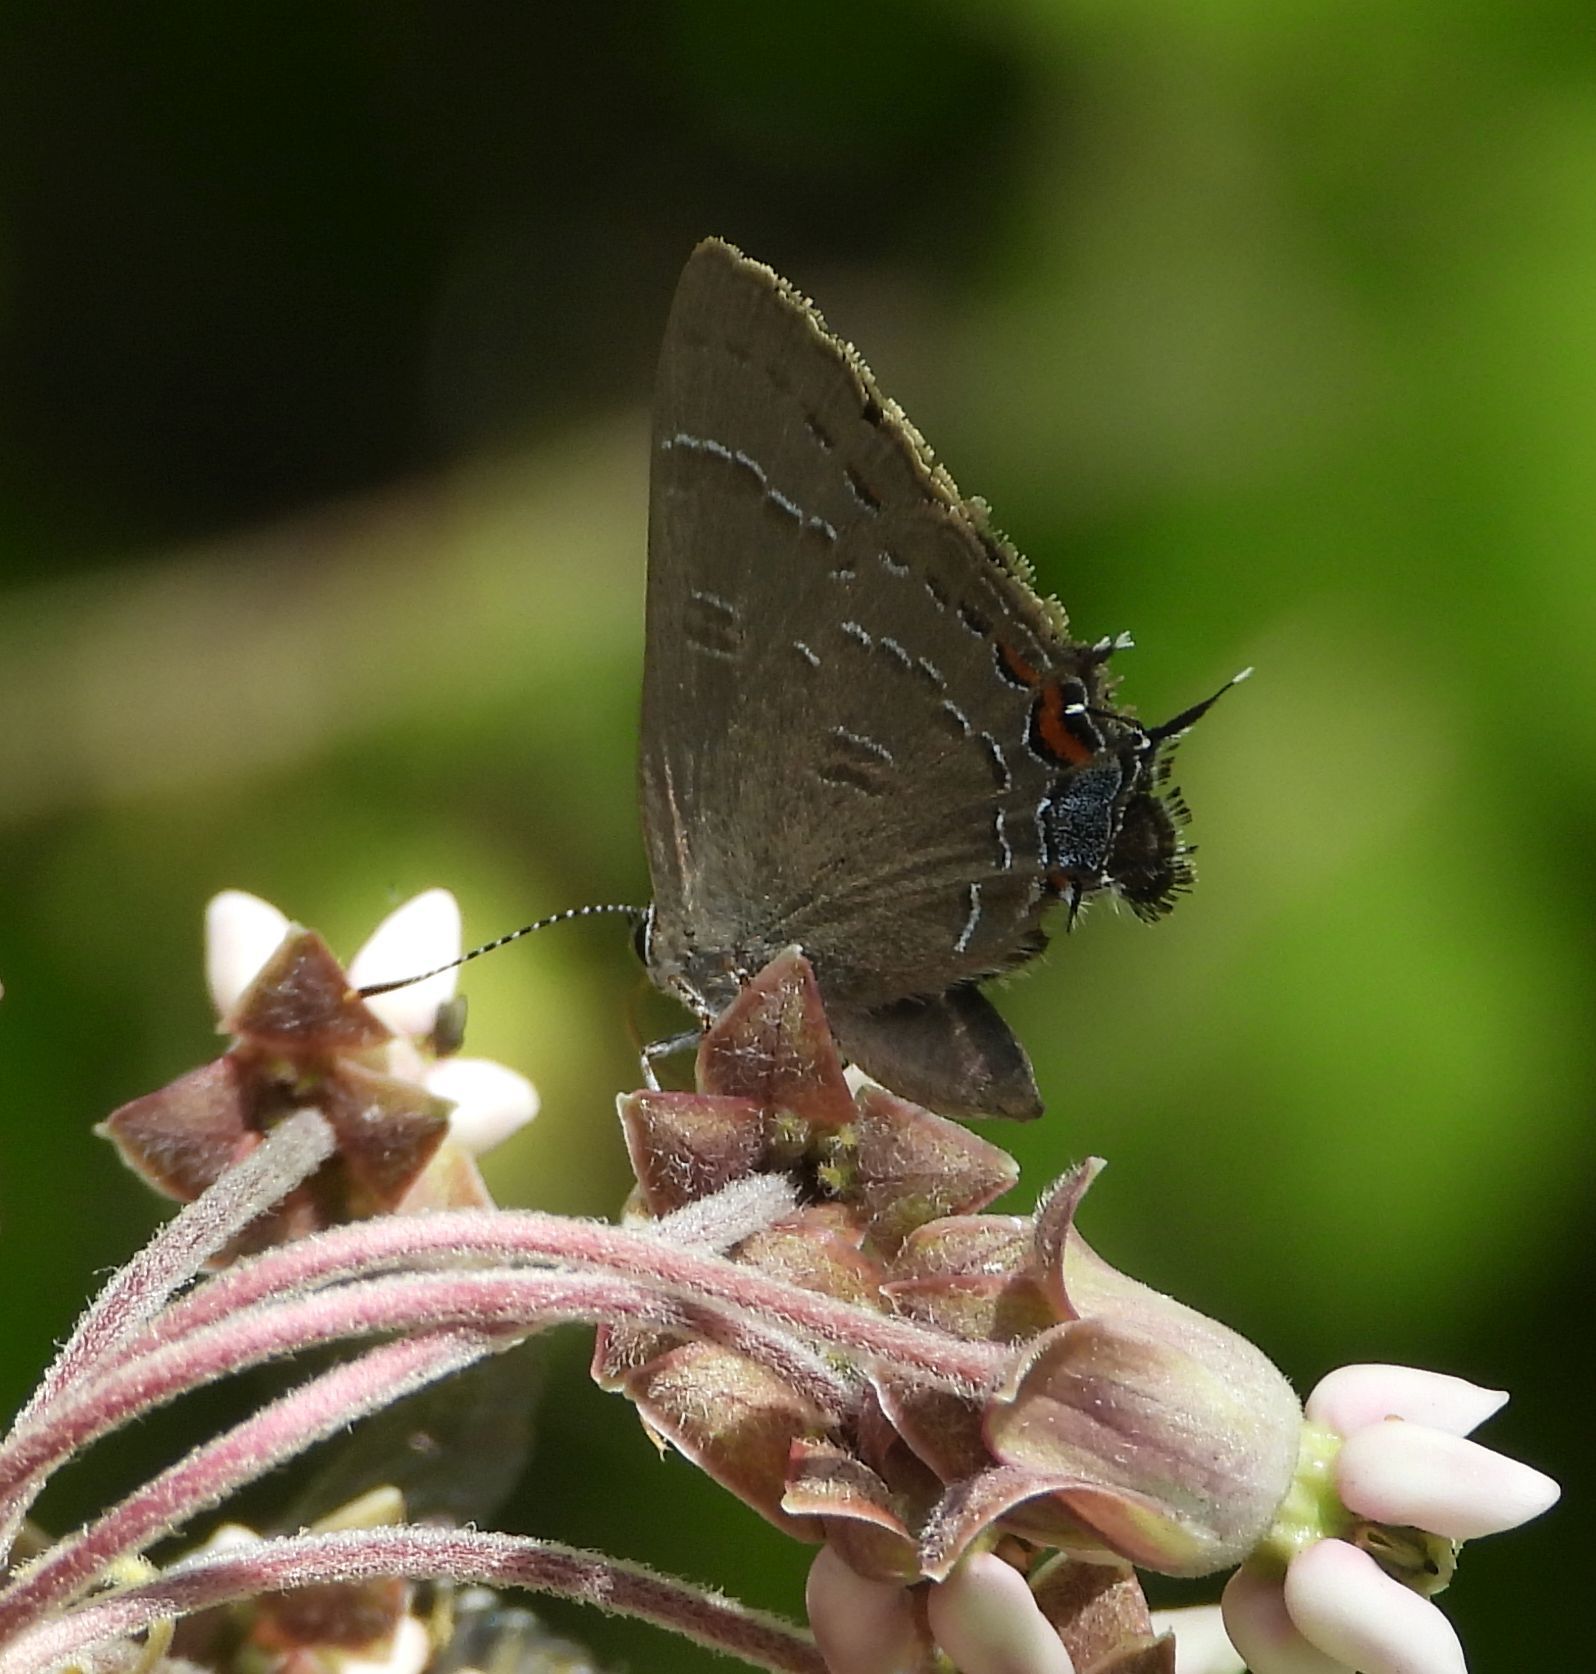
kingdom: Animalia
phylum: Arthropoda
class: Insecta
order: Lepidoptera
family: Lycaenidae
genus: Satyrium
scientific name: Satyrium calanus
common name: Banded hairstreak
